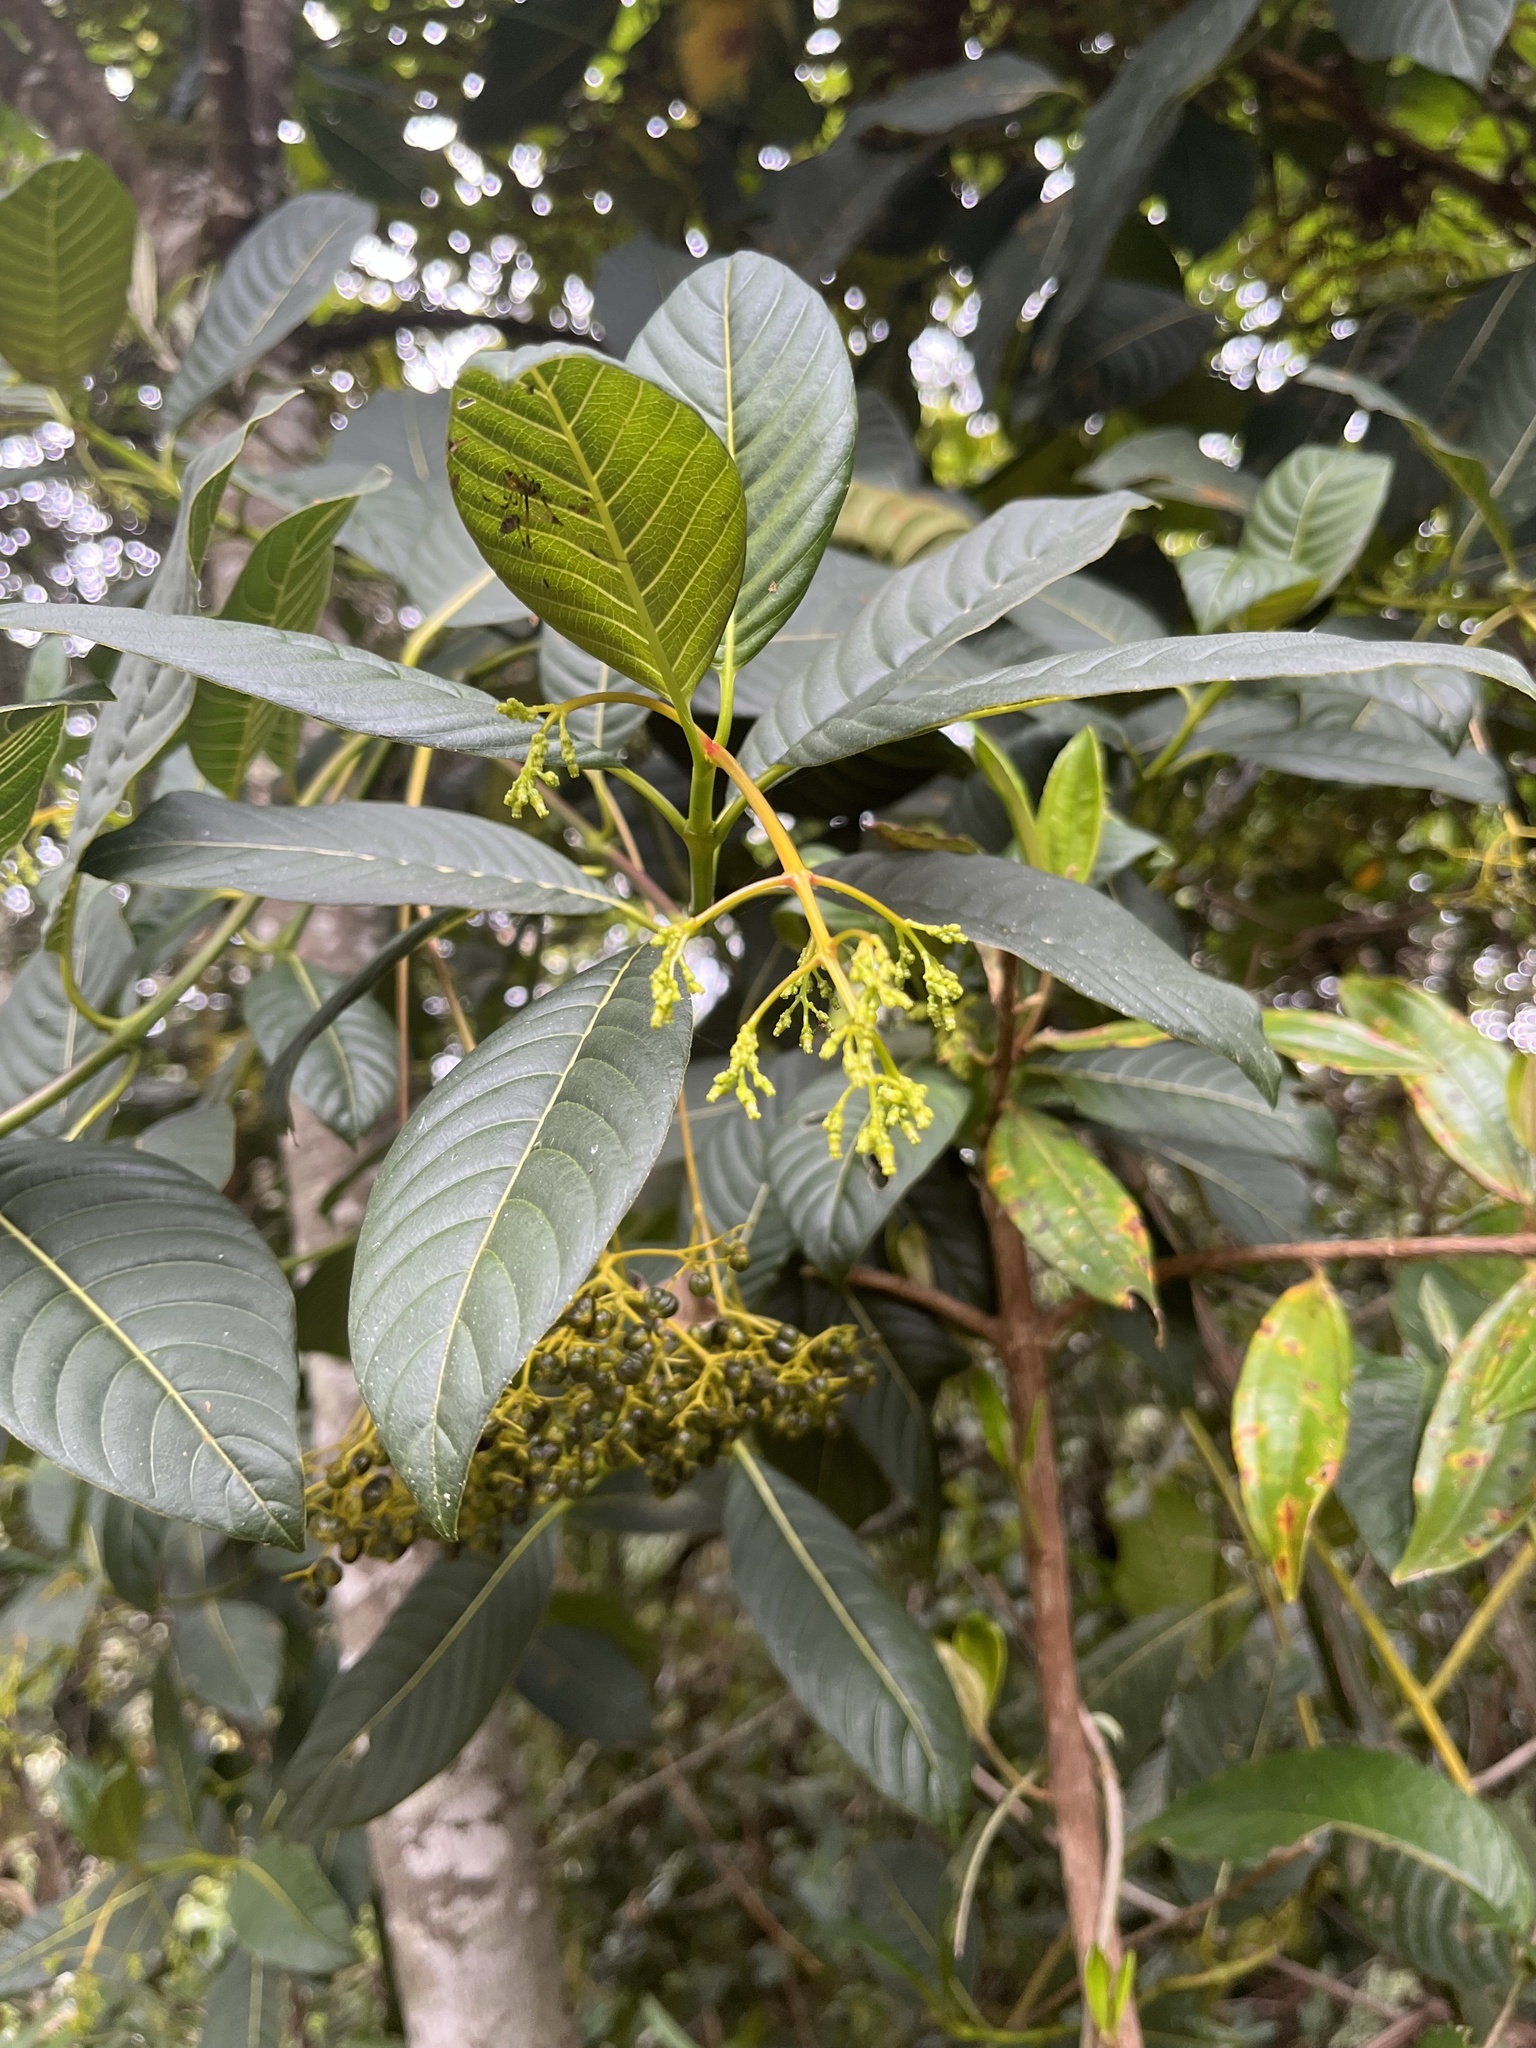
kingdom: Plantae
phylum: Tracheophyta
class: Magnoliopsida
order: Gentianales
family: Rubiaceae
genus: Palicourea
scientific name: Palicourea lineariflora
